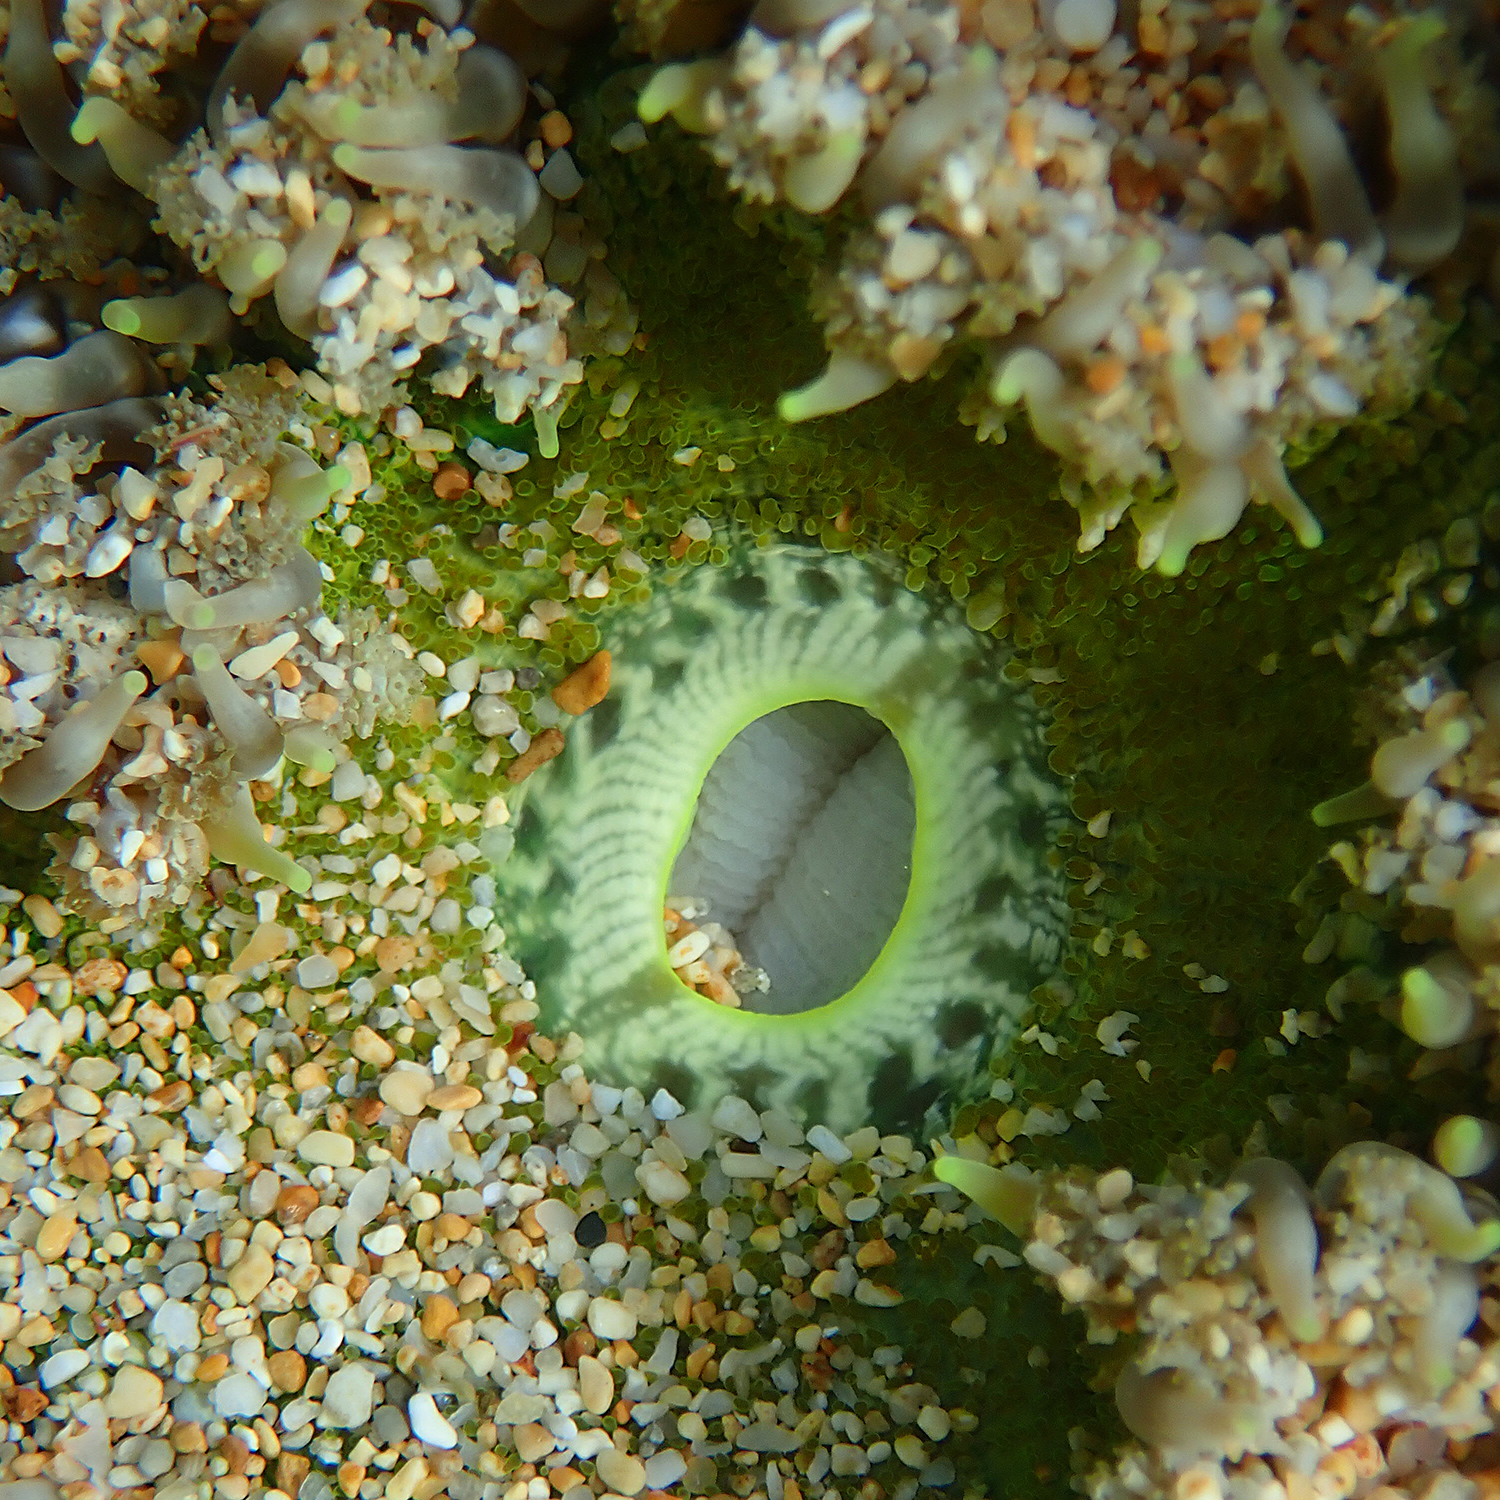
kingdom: Animalia
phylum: Cnidaria
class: Anthozoa
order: Actiniaria
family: Heteranthidae
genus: Heteranthus
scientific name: Heteranthus verruculatus
